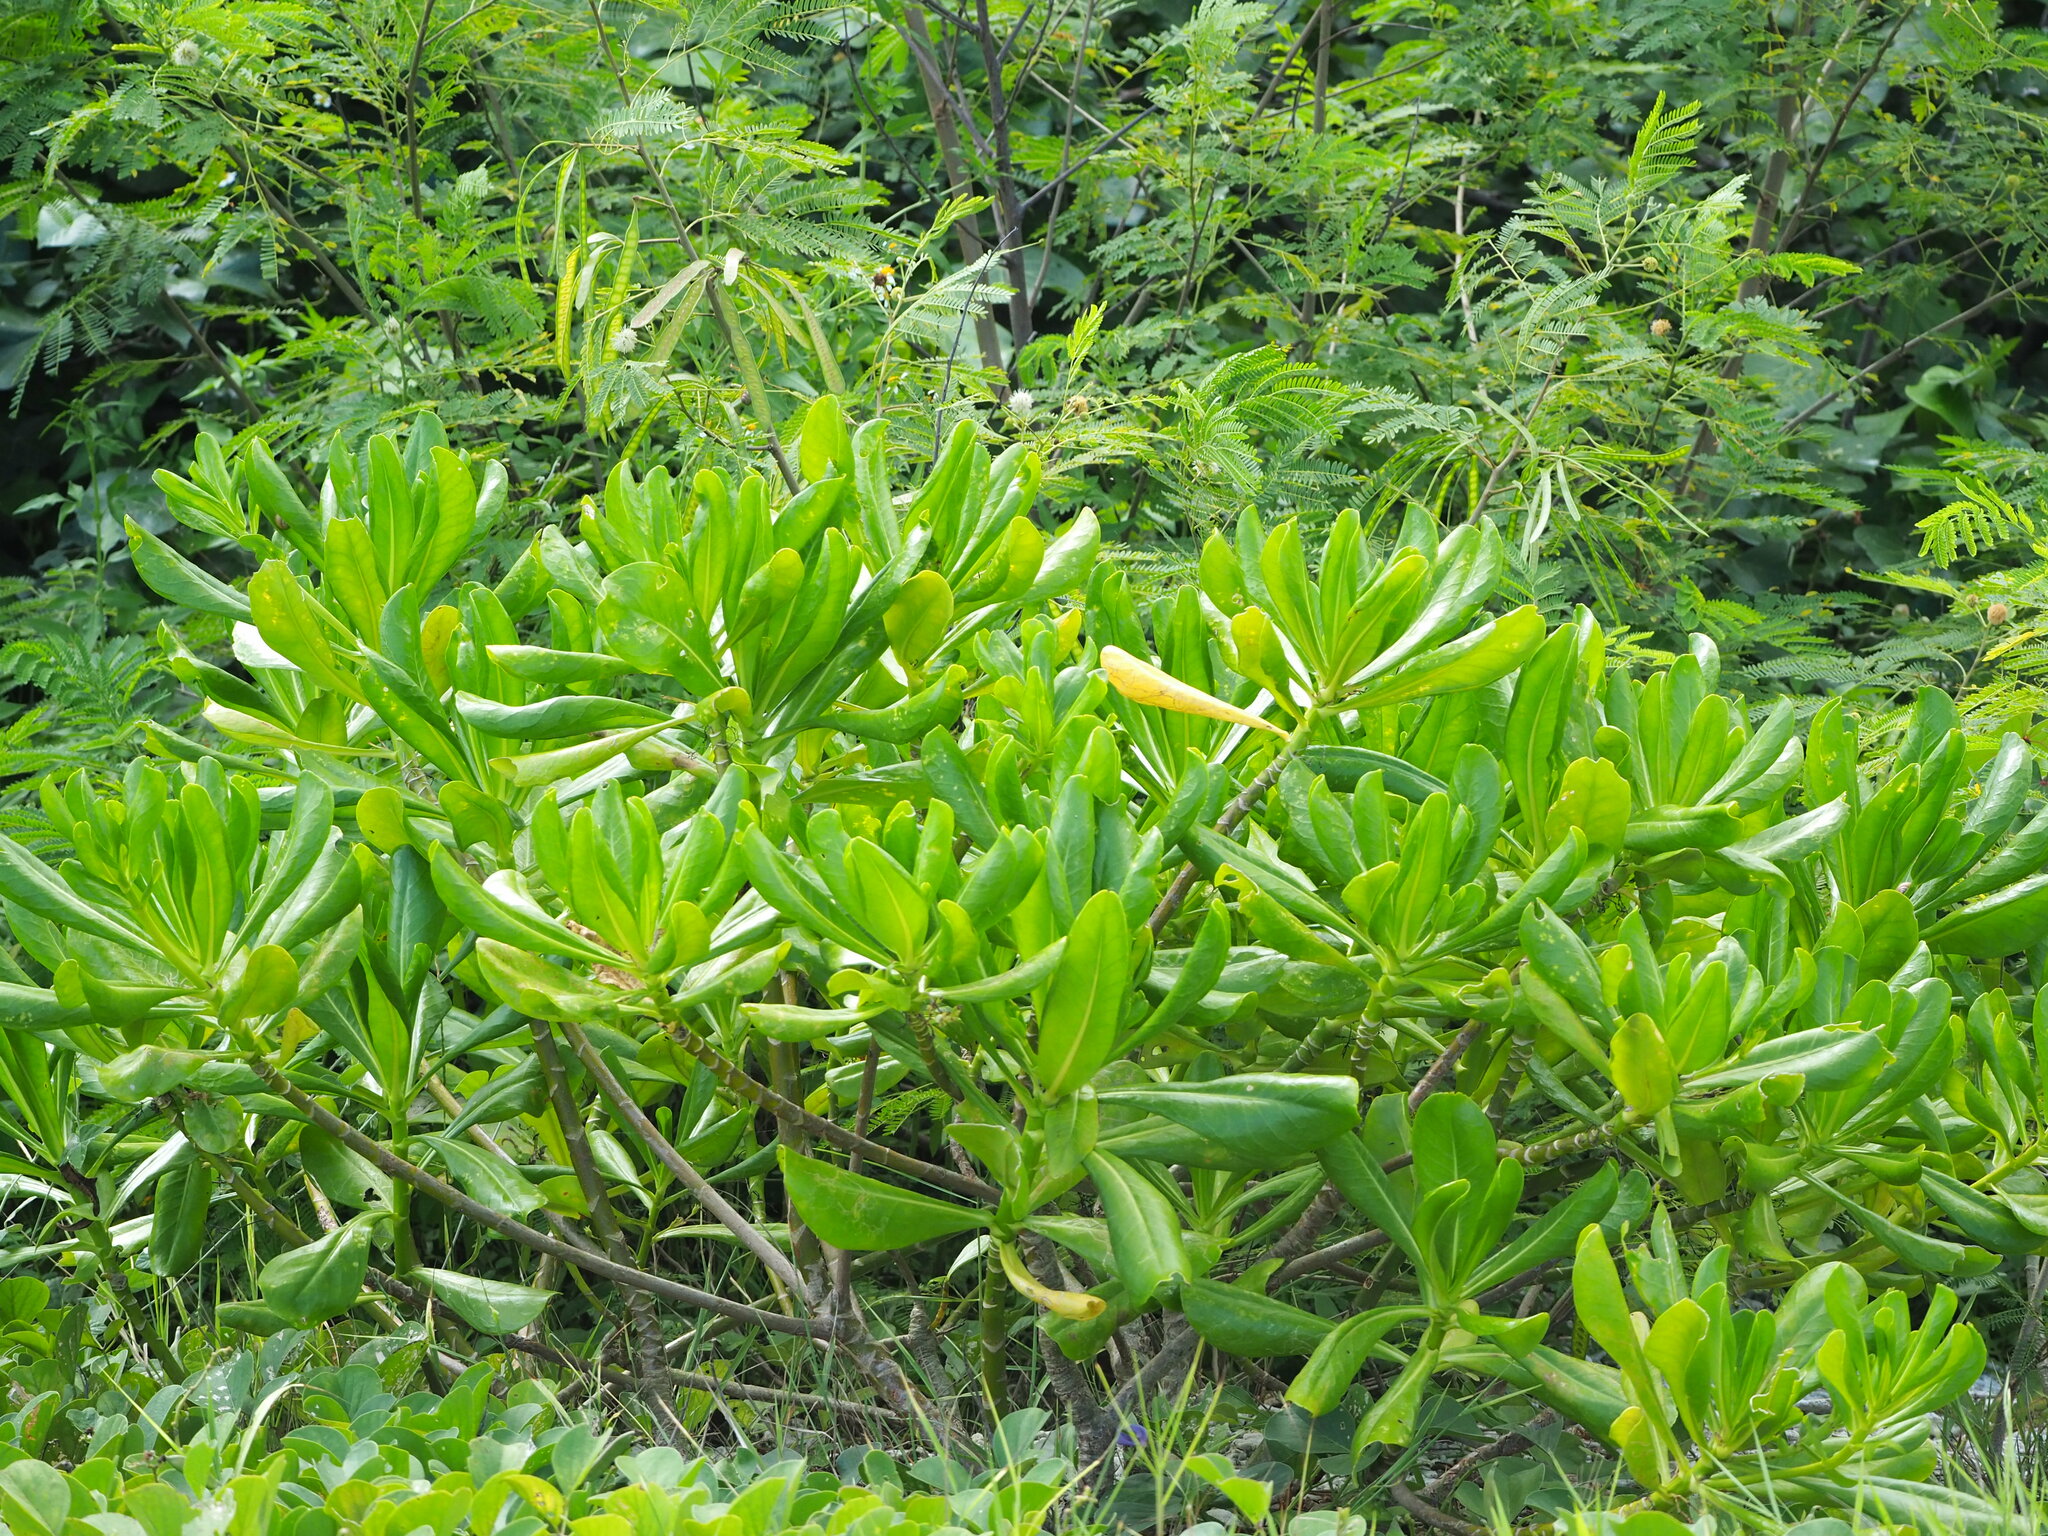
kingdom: Plantae
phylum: Tracheophyta
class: Magnoliopsida
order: Asterales
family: Goodeniaceae
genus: Scaevola
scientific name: Scaevola taccada
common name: Sea lettucetree
